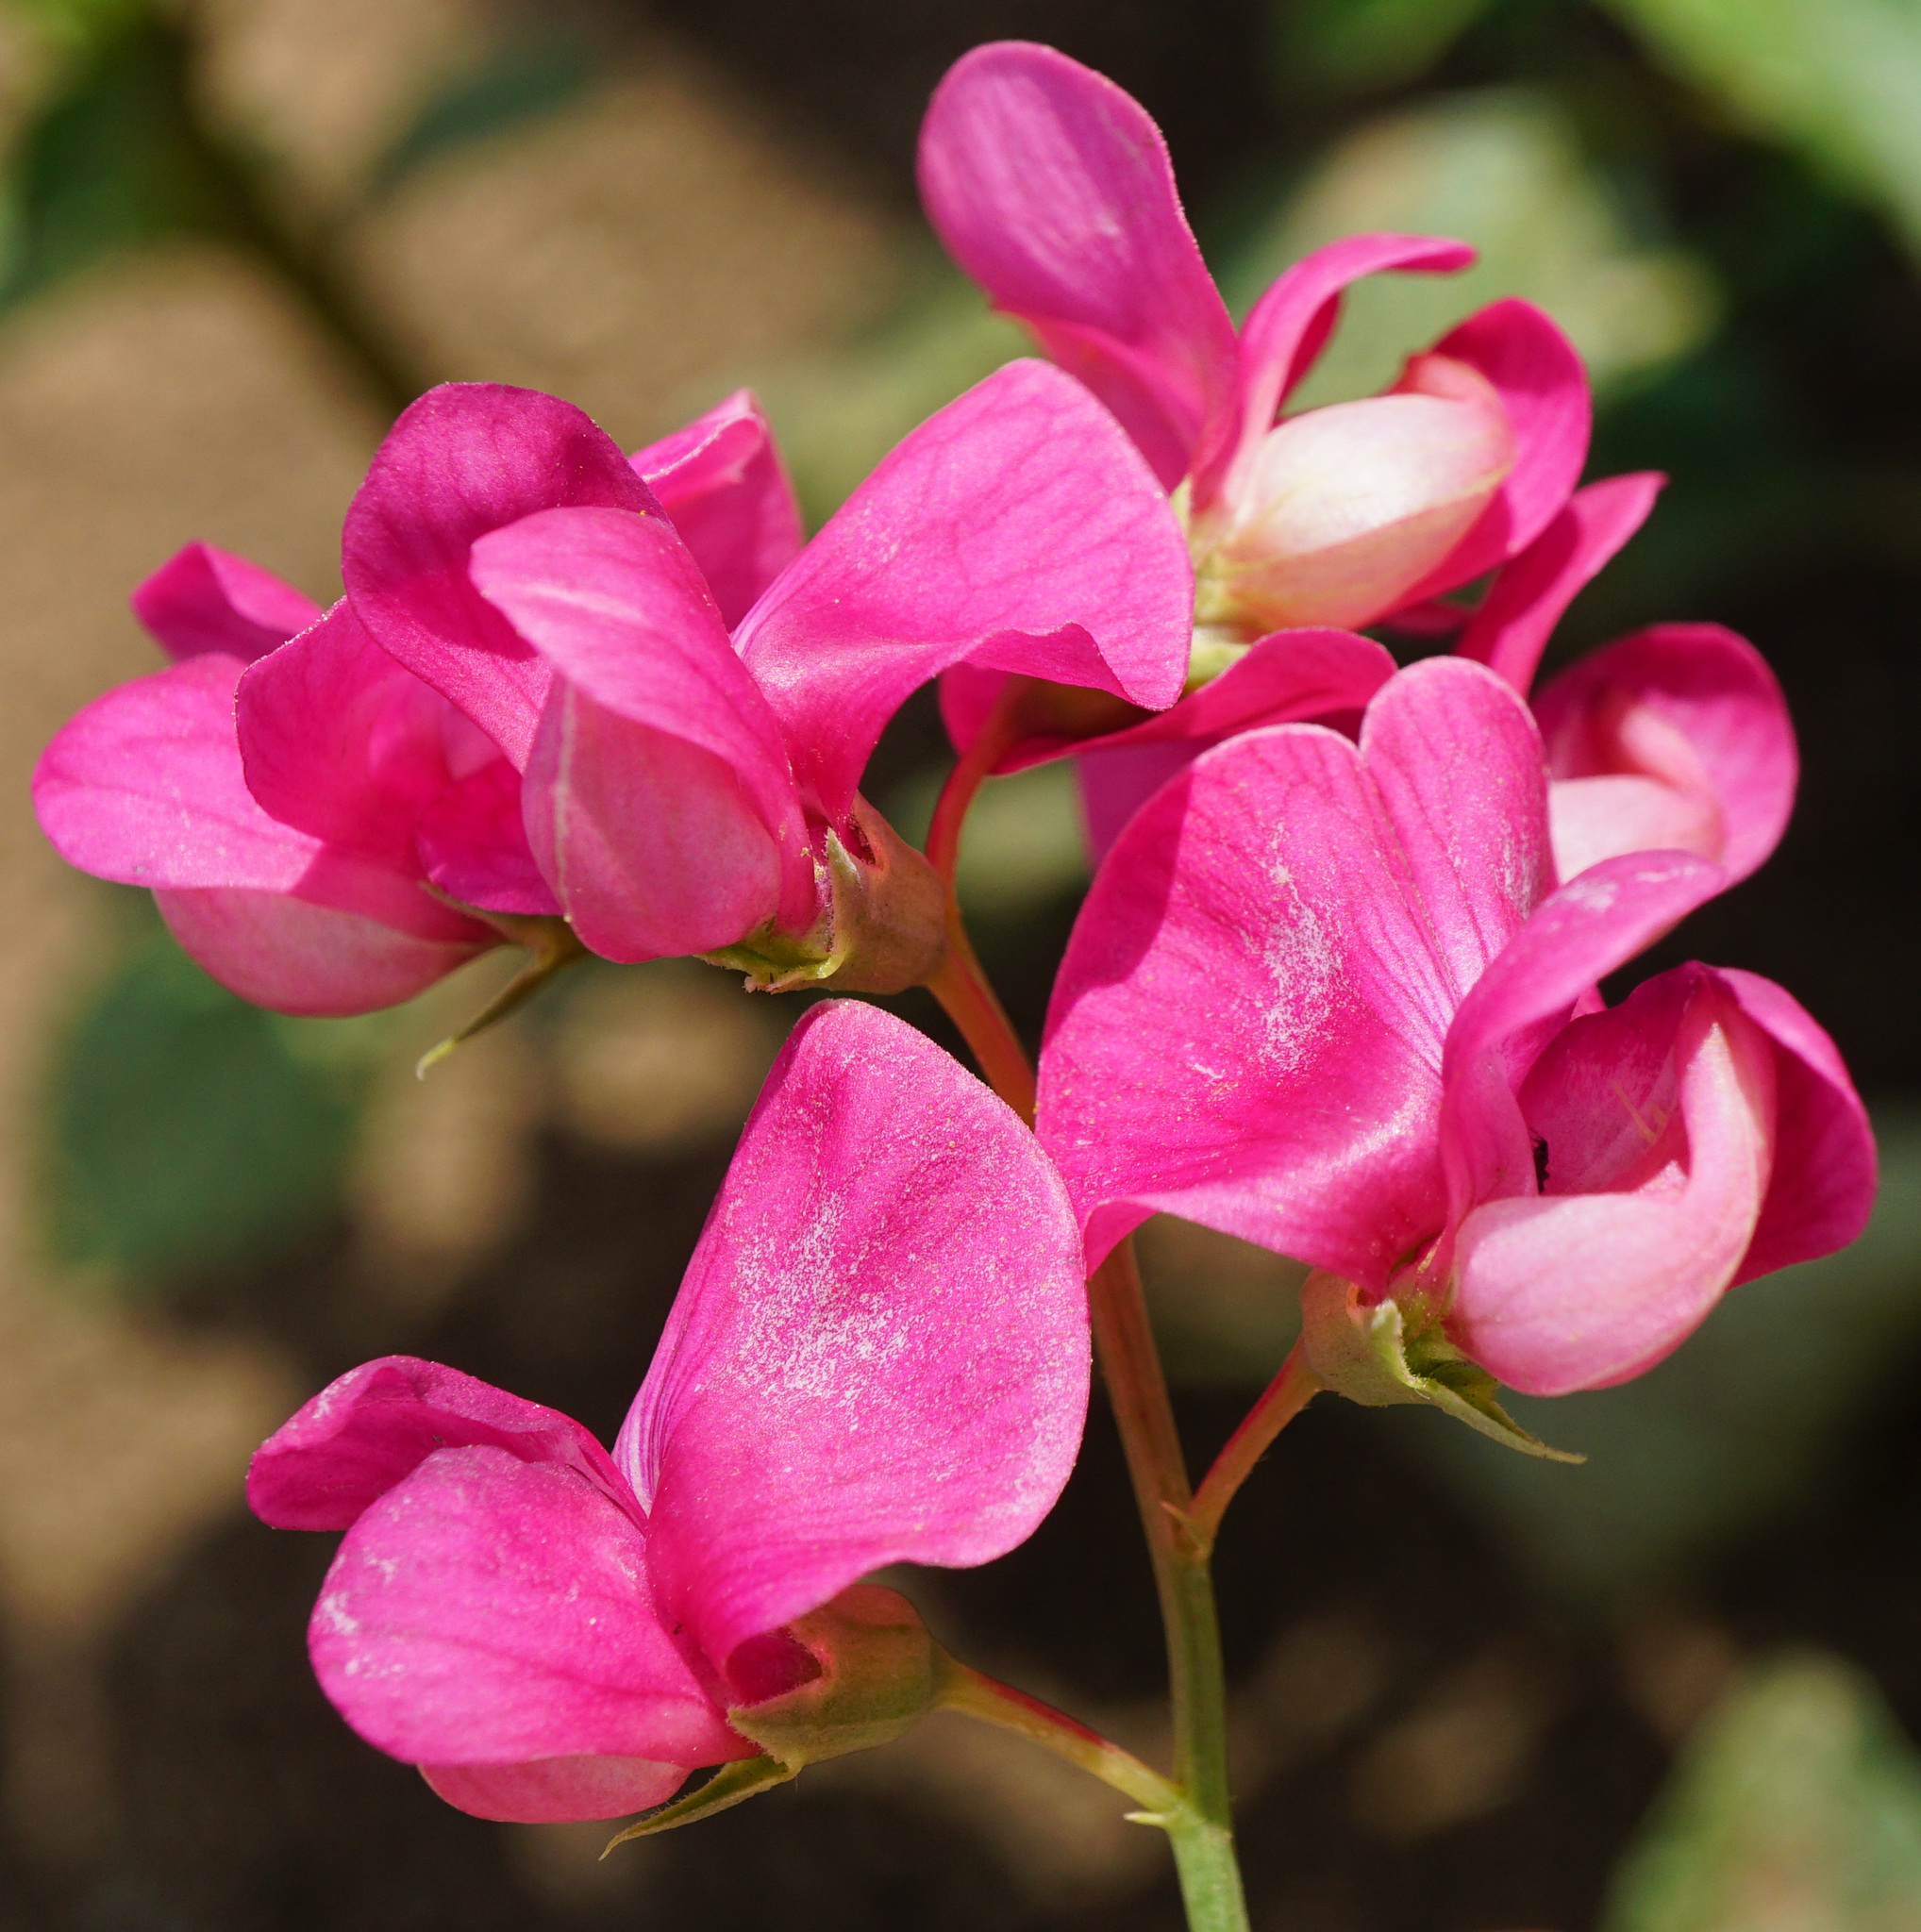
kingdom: Plantae
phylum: Tracheophyta
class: Magnoliopsida
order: Fabales
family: Fabaceae
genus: Lathyrus
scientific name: Lathyrus tuberosus
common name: Tuberous pea
